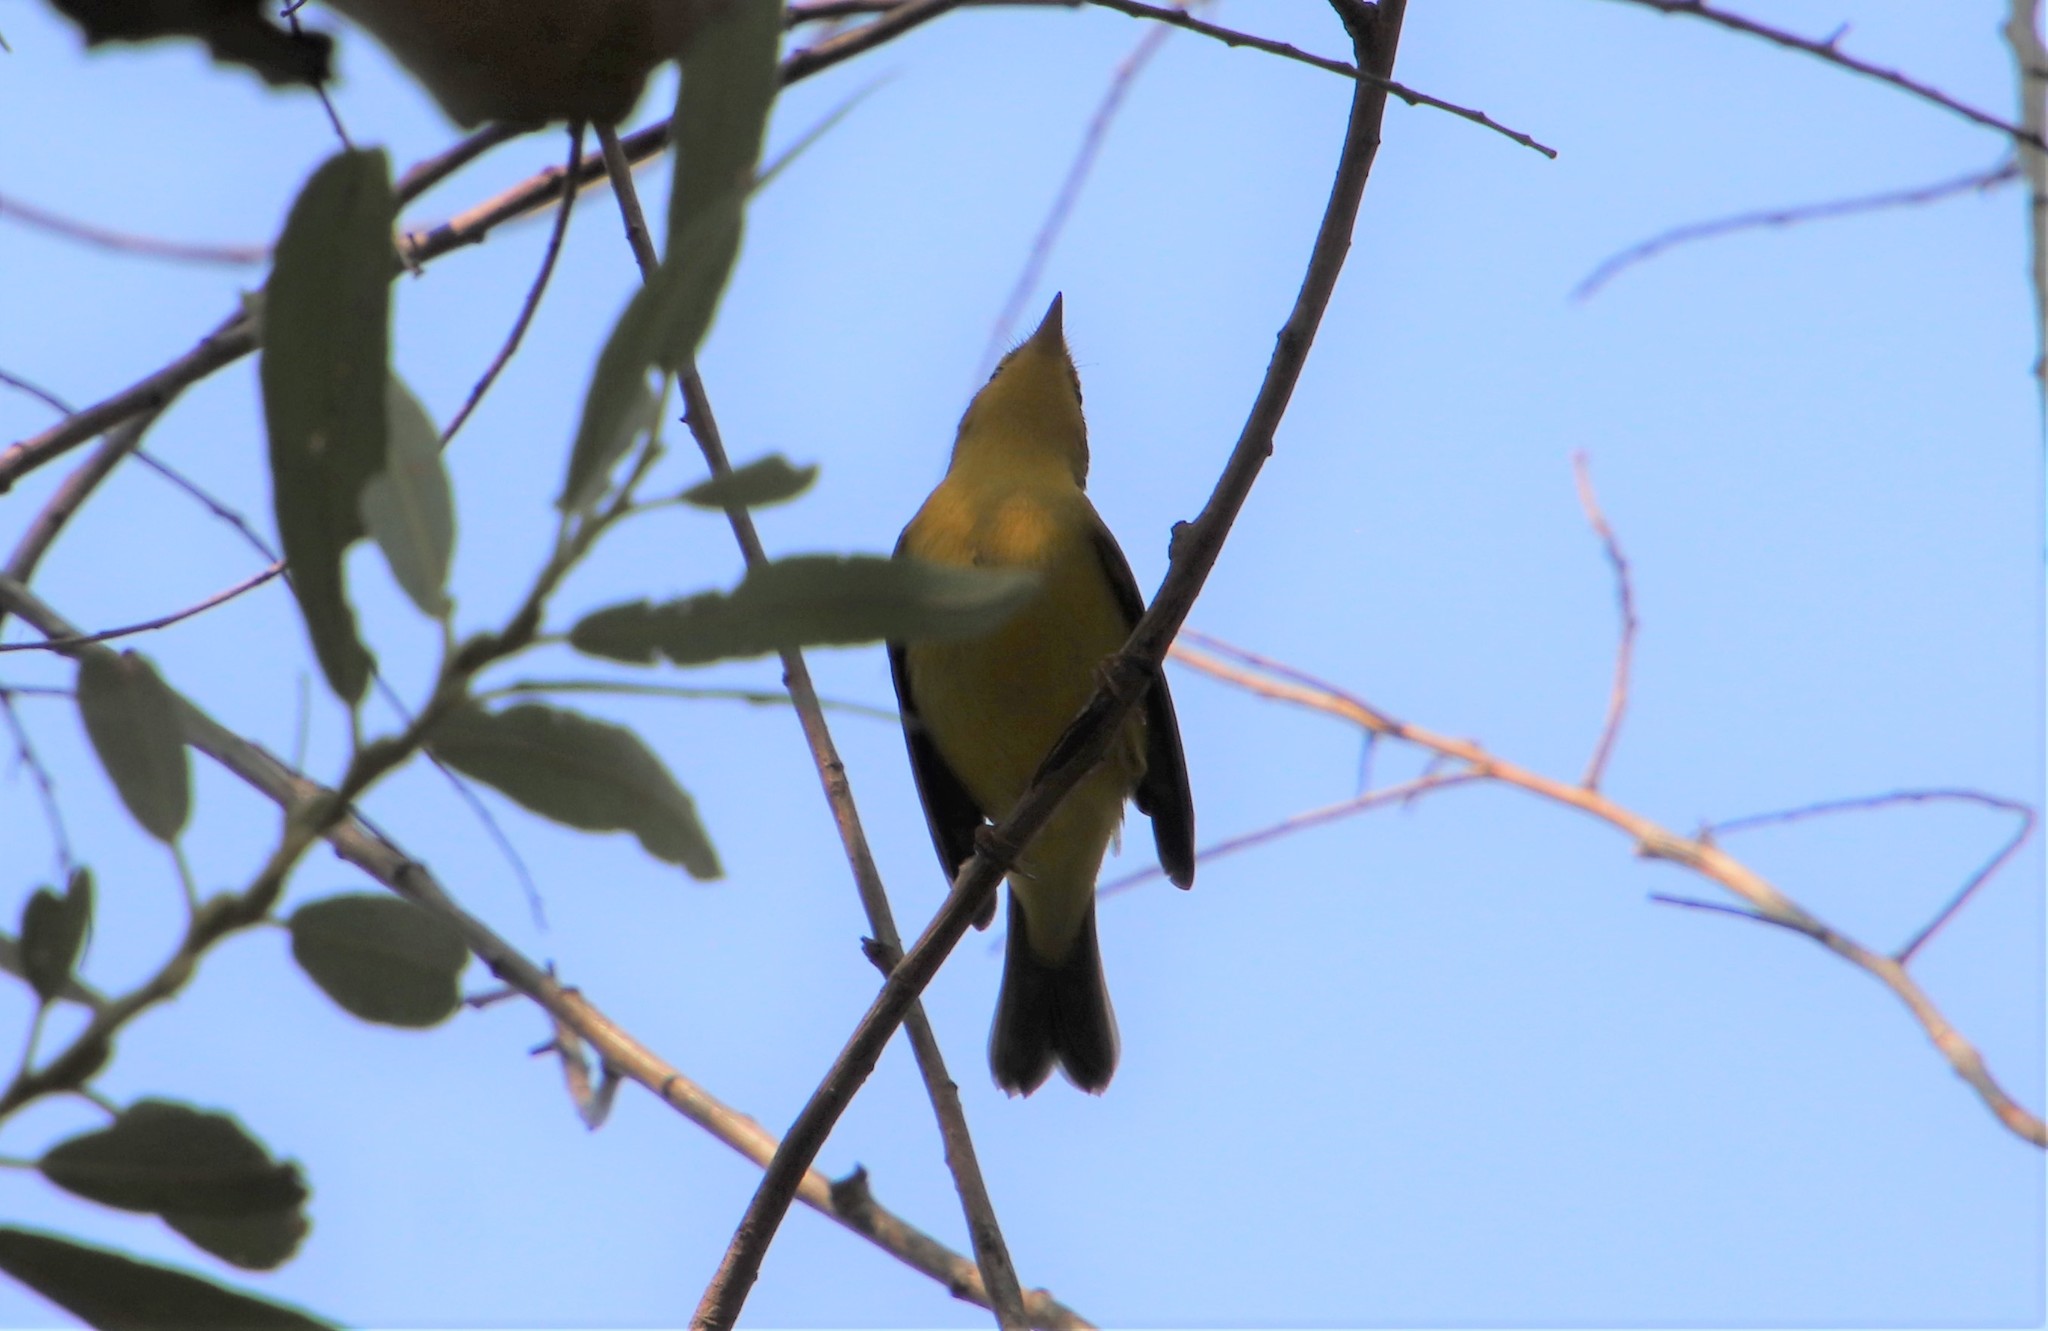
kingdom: Animalia
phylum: Chordata
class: Aves
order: Passeriformes
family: Parulidae
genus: Cardellina
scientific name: Cardellina pusilla
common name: Wilson's warbler
